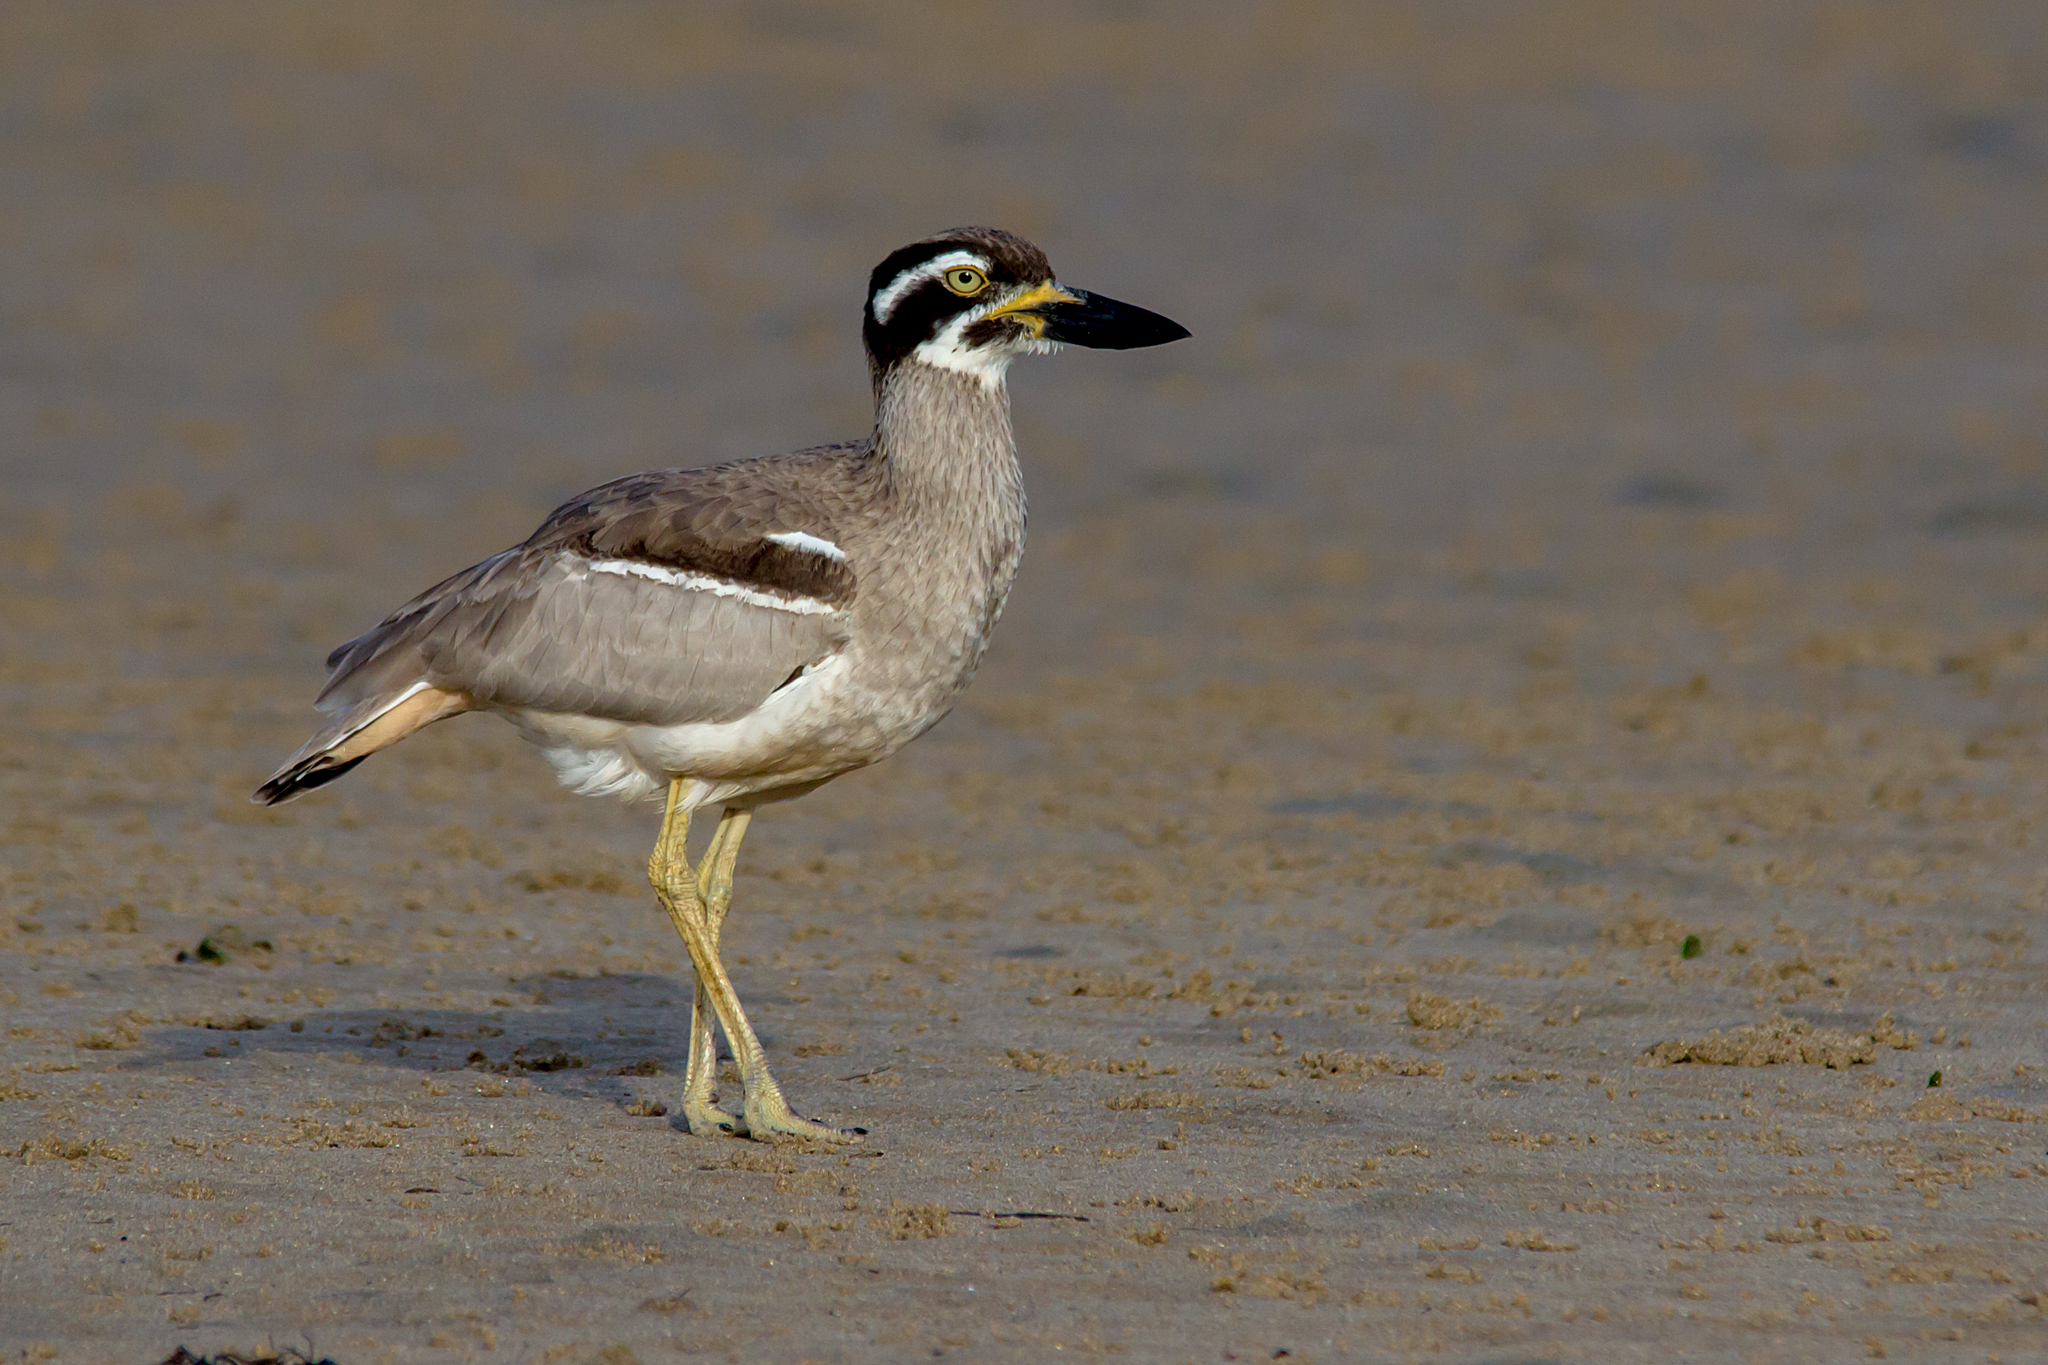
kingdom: Animalia
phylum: Chordata
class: Aves
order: Charadriiformes
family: Burhinidae
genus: Esacus
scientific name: Esacus magnirostris
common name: Beach stone-curlew
